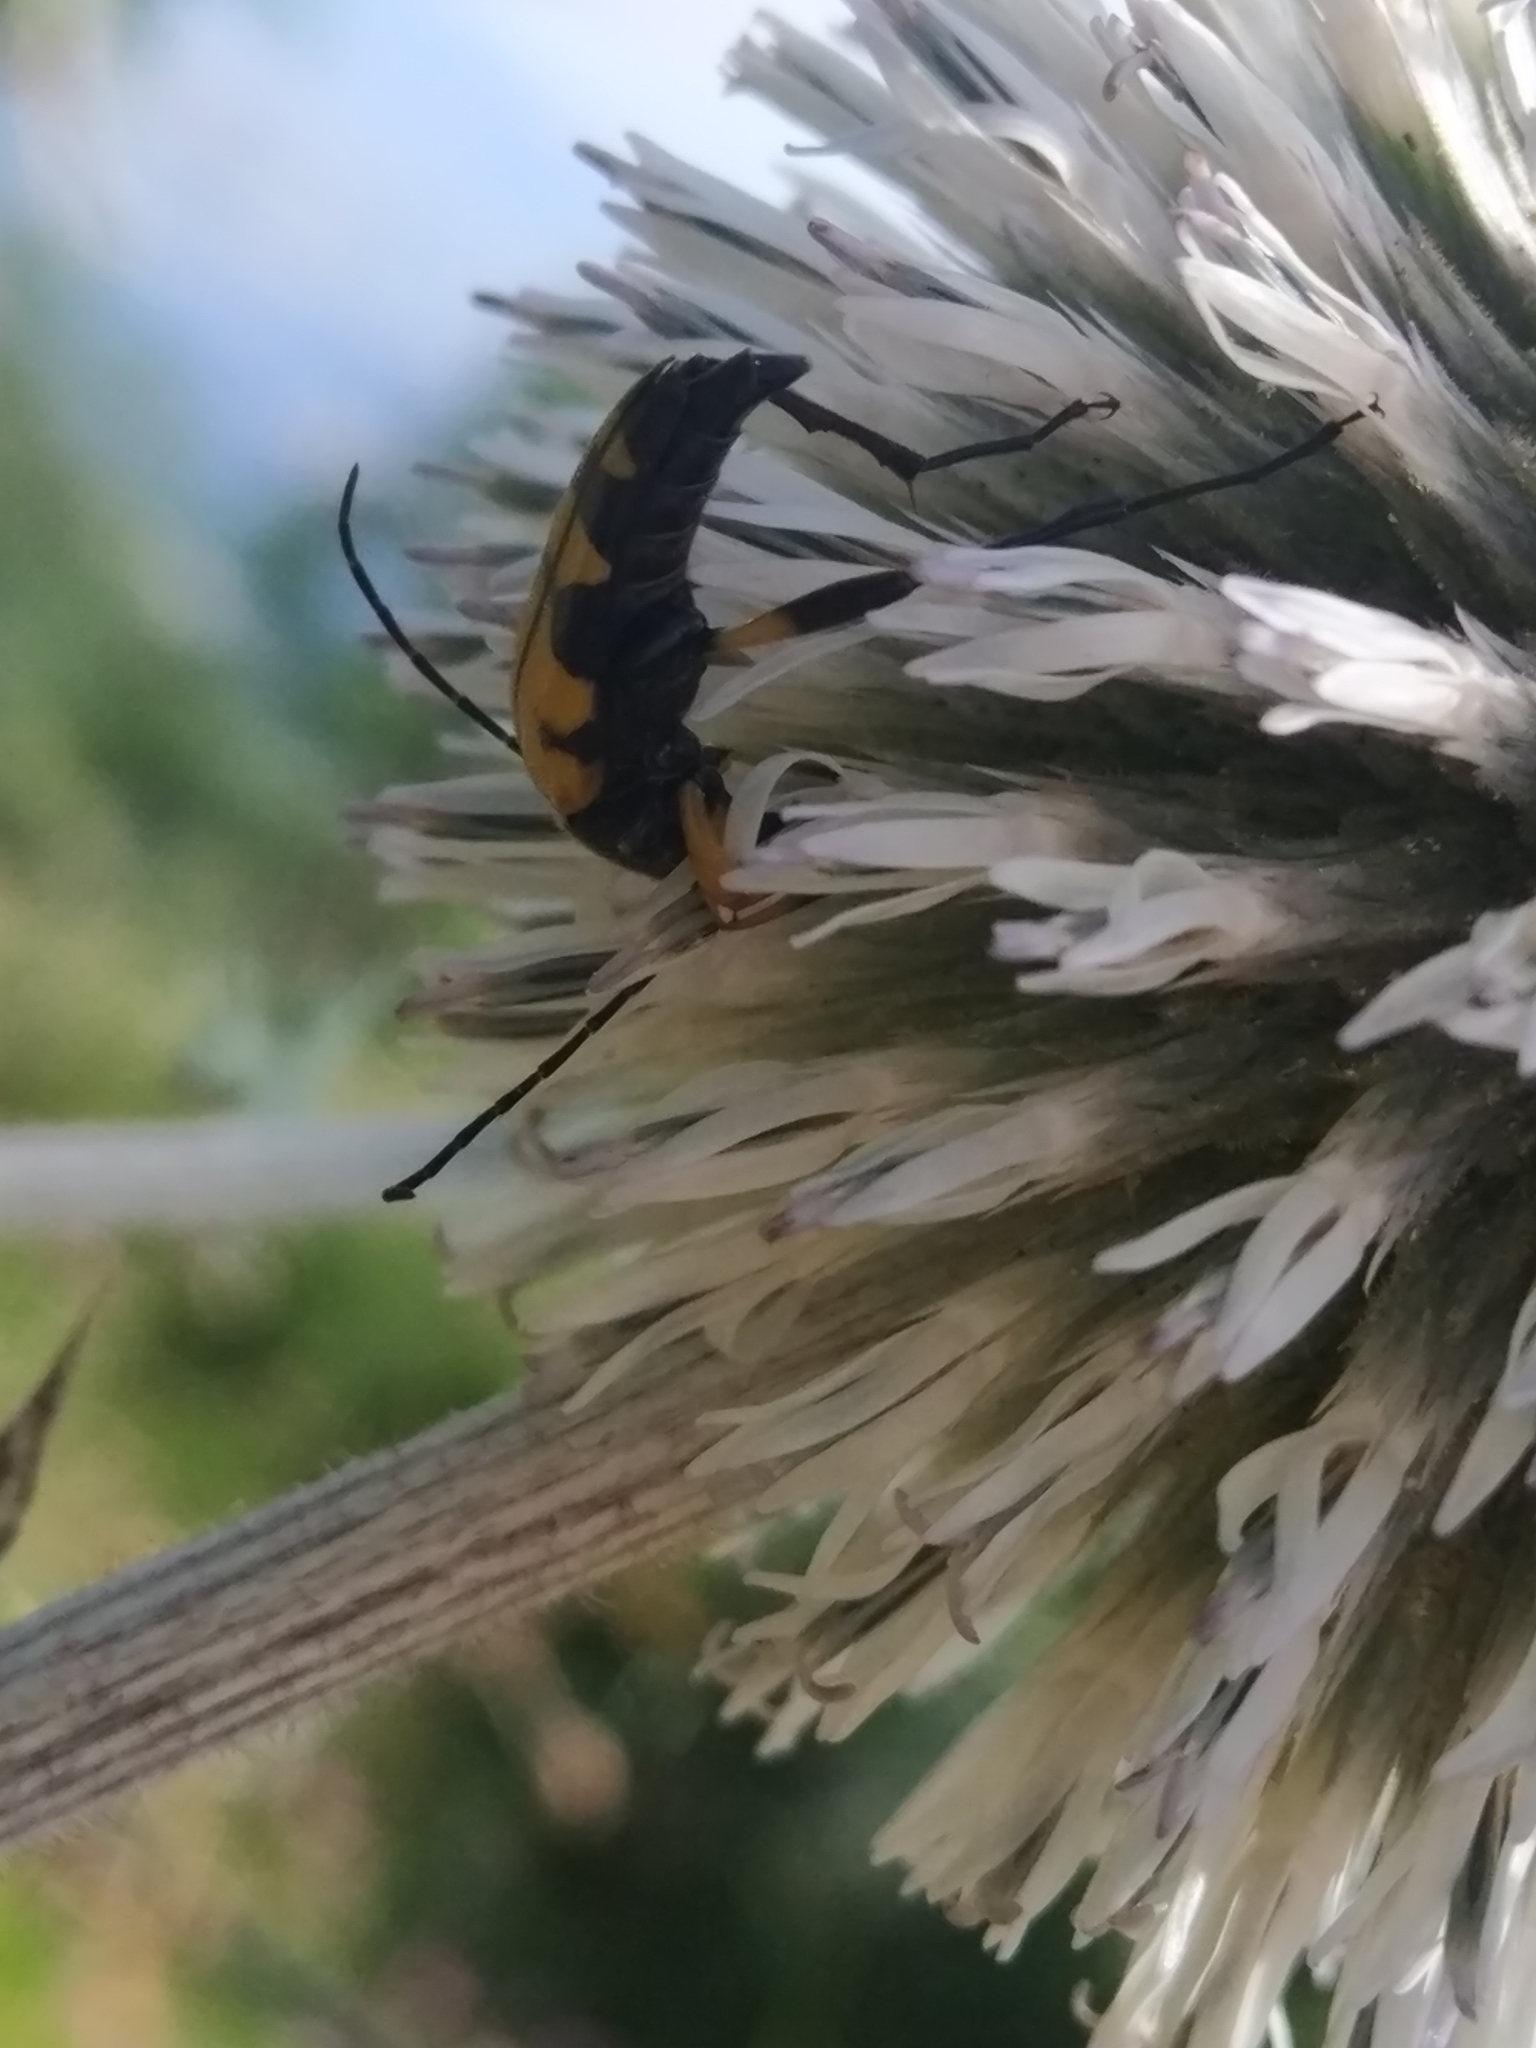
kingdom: Animalia
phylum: Arthropoda
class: Insecta
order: Coleoptera
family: Cerambycidae
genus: Rutpela
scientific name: Rutpela maculata
